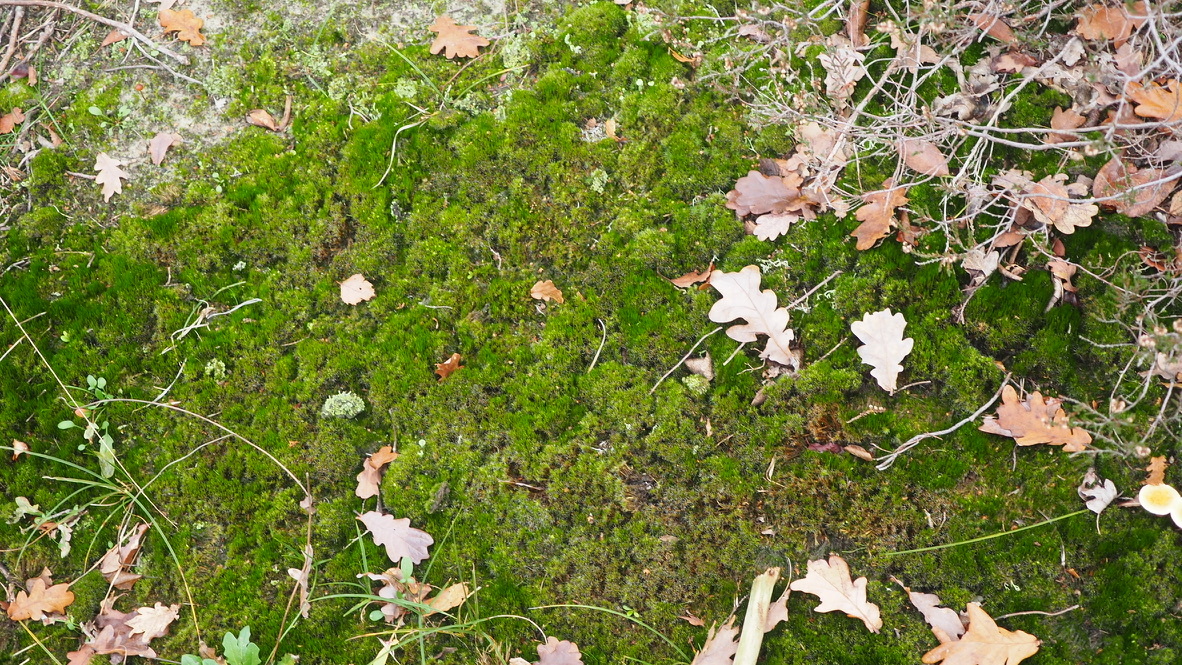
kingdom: Plantae
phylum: Bryophyta
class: Bryopsida
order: Dicranales
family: Leucobryaceae
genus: Campylopus
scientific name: Campylopus introflexus
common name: Heath star moss
